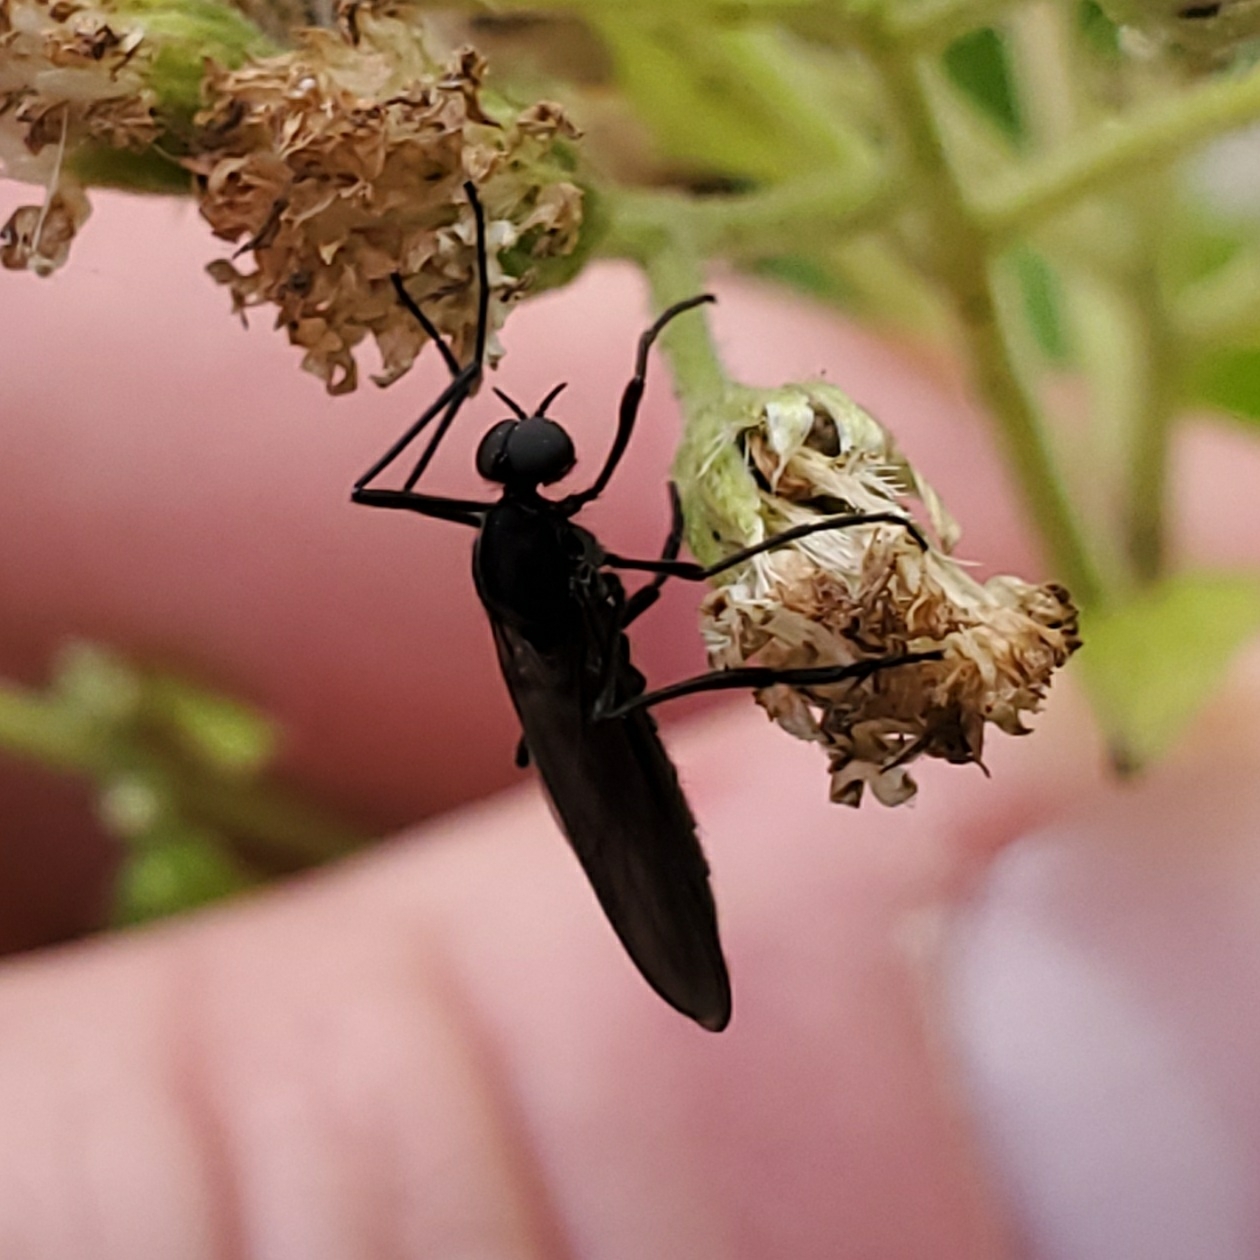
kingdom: Animalia
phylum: Arthropoda
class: Insecta
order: Diptera
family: Bibionidae
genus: Penthetria
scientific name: Penthetria heteroptera
